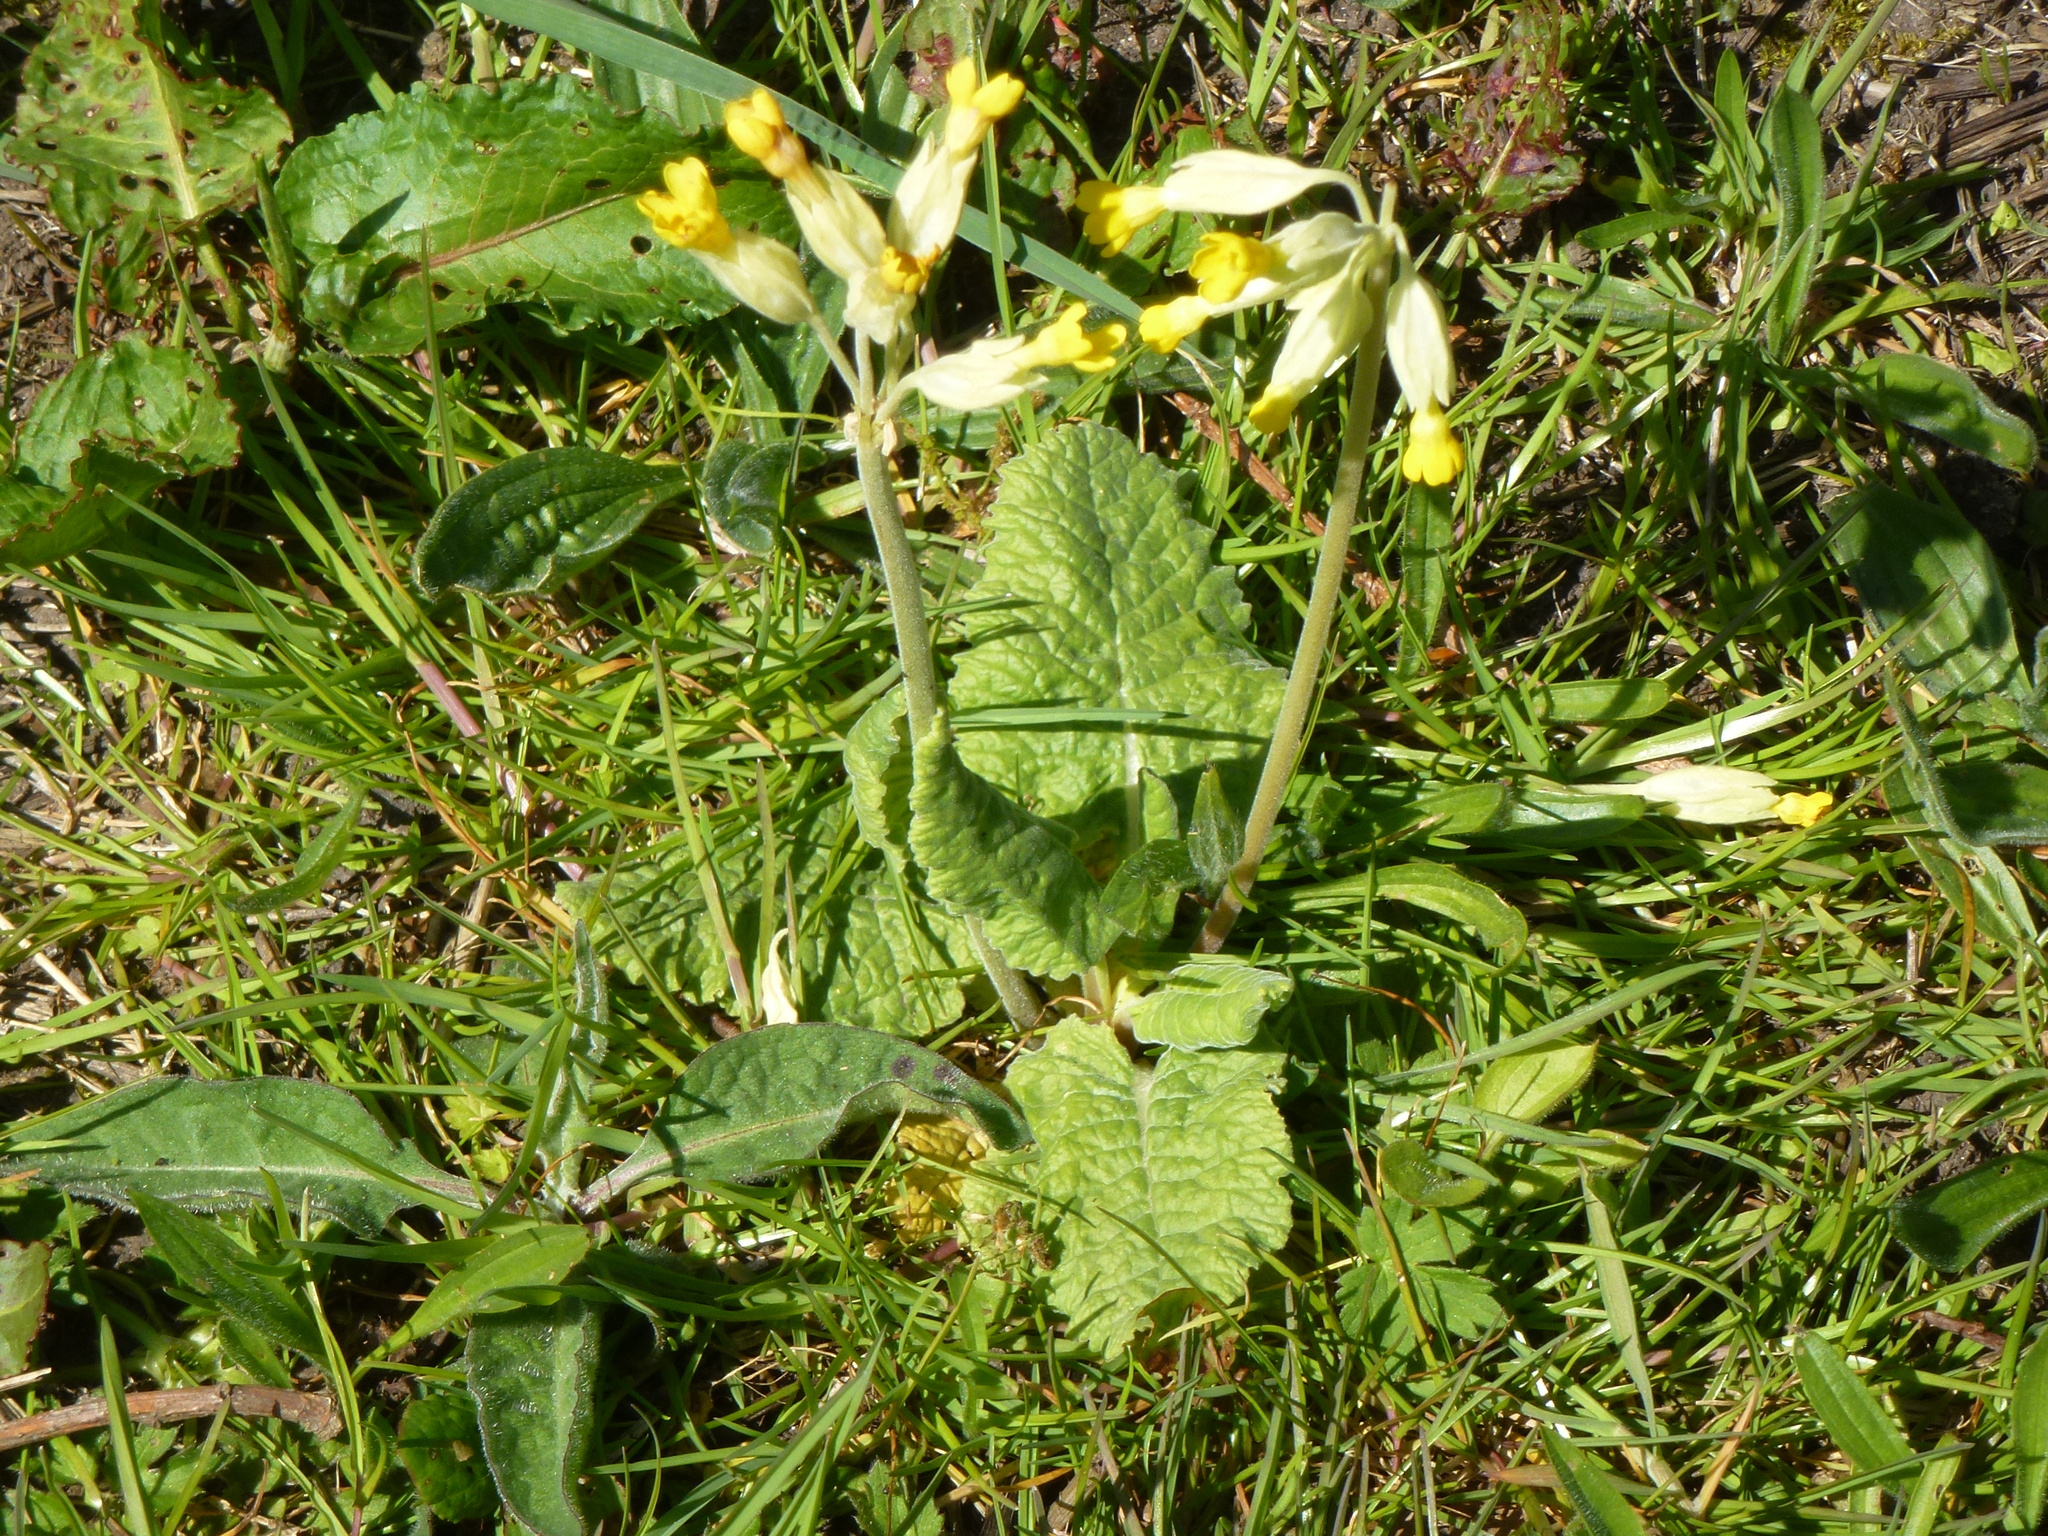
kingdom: Plantae
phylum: Tracheophyta
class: Magnoliopsida
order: Ericales
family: Primulaceae
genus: Primula
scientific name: Primula veris
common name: Cowslip
